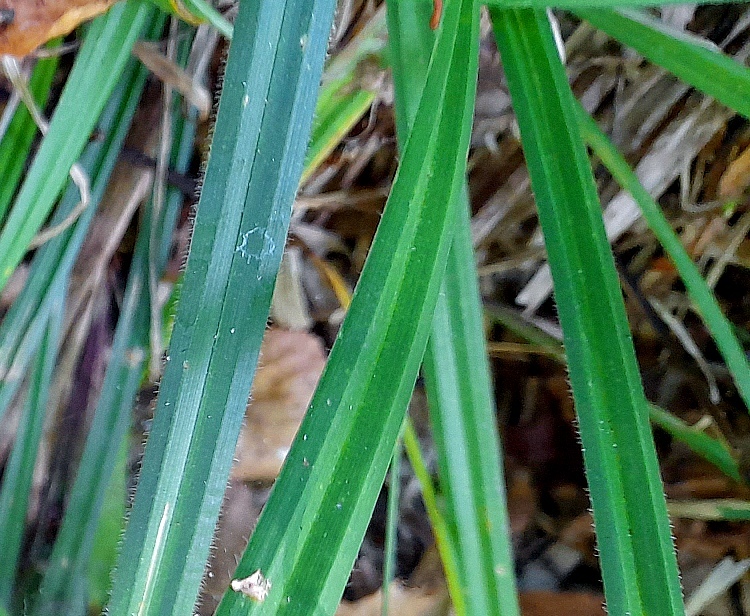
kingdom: Plantae
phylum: Tracheophyta
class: Liliopsida
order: Poales
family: Cyperaceae
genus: Carex
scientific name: Carex pilosa
